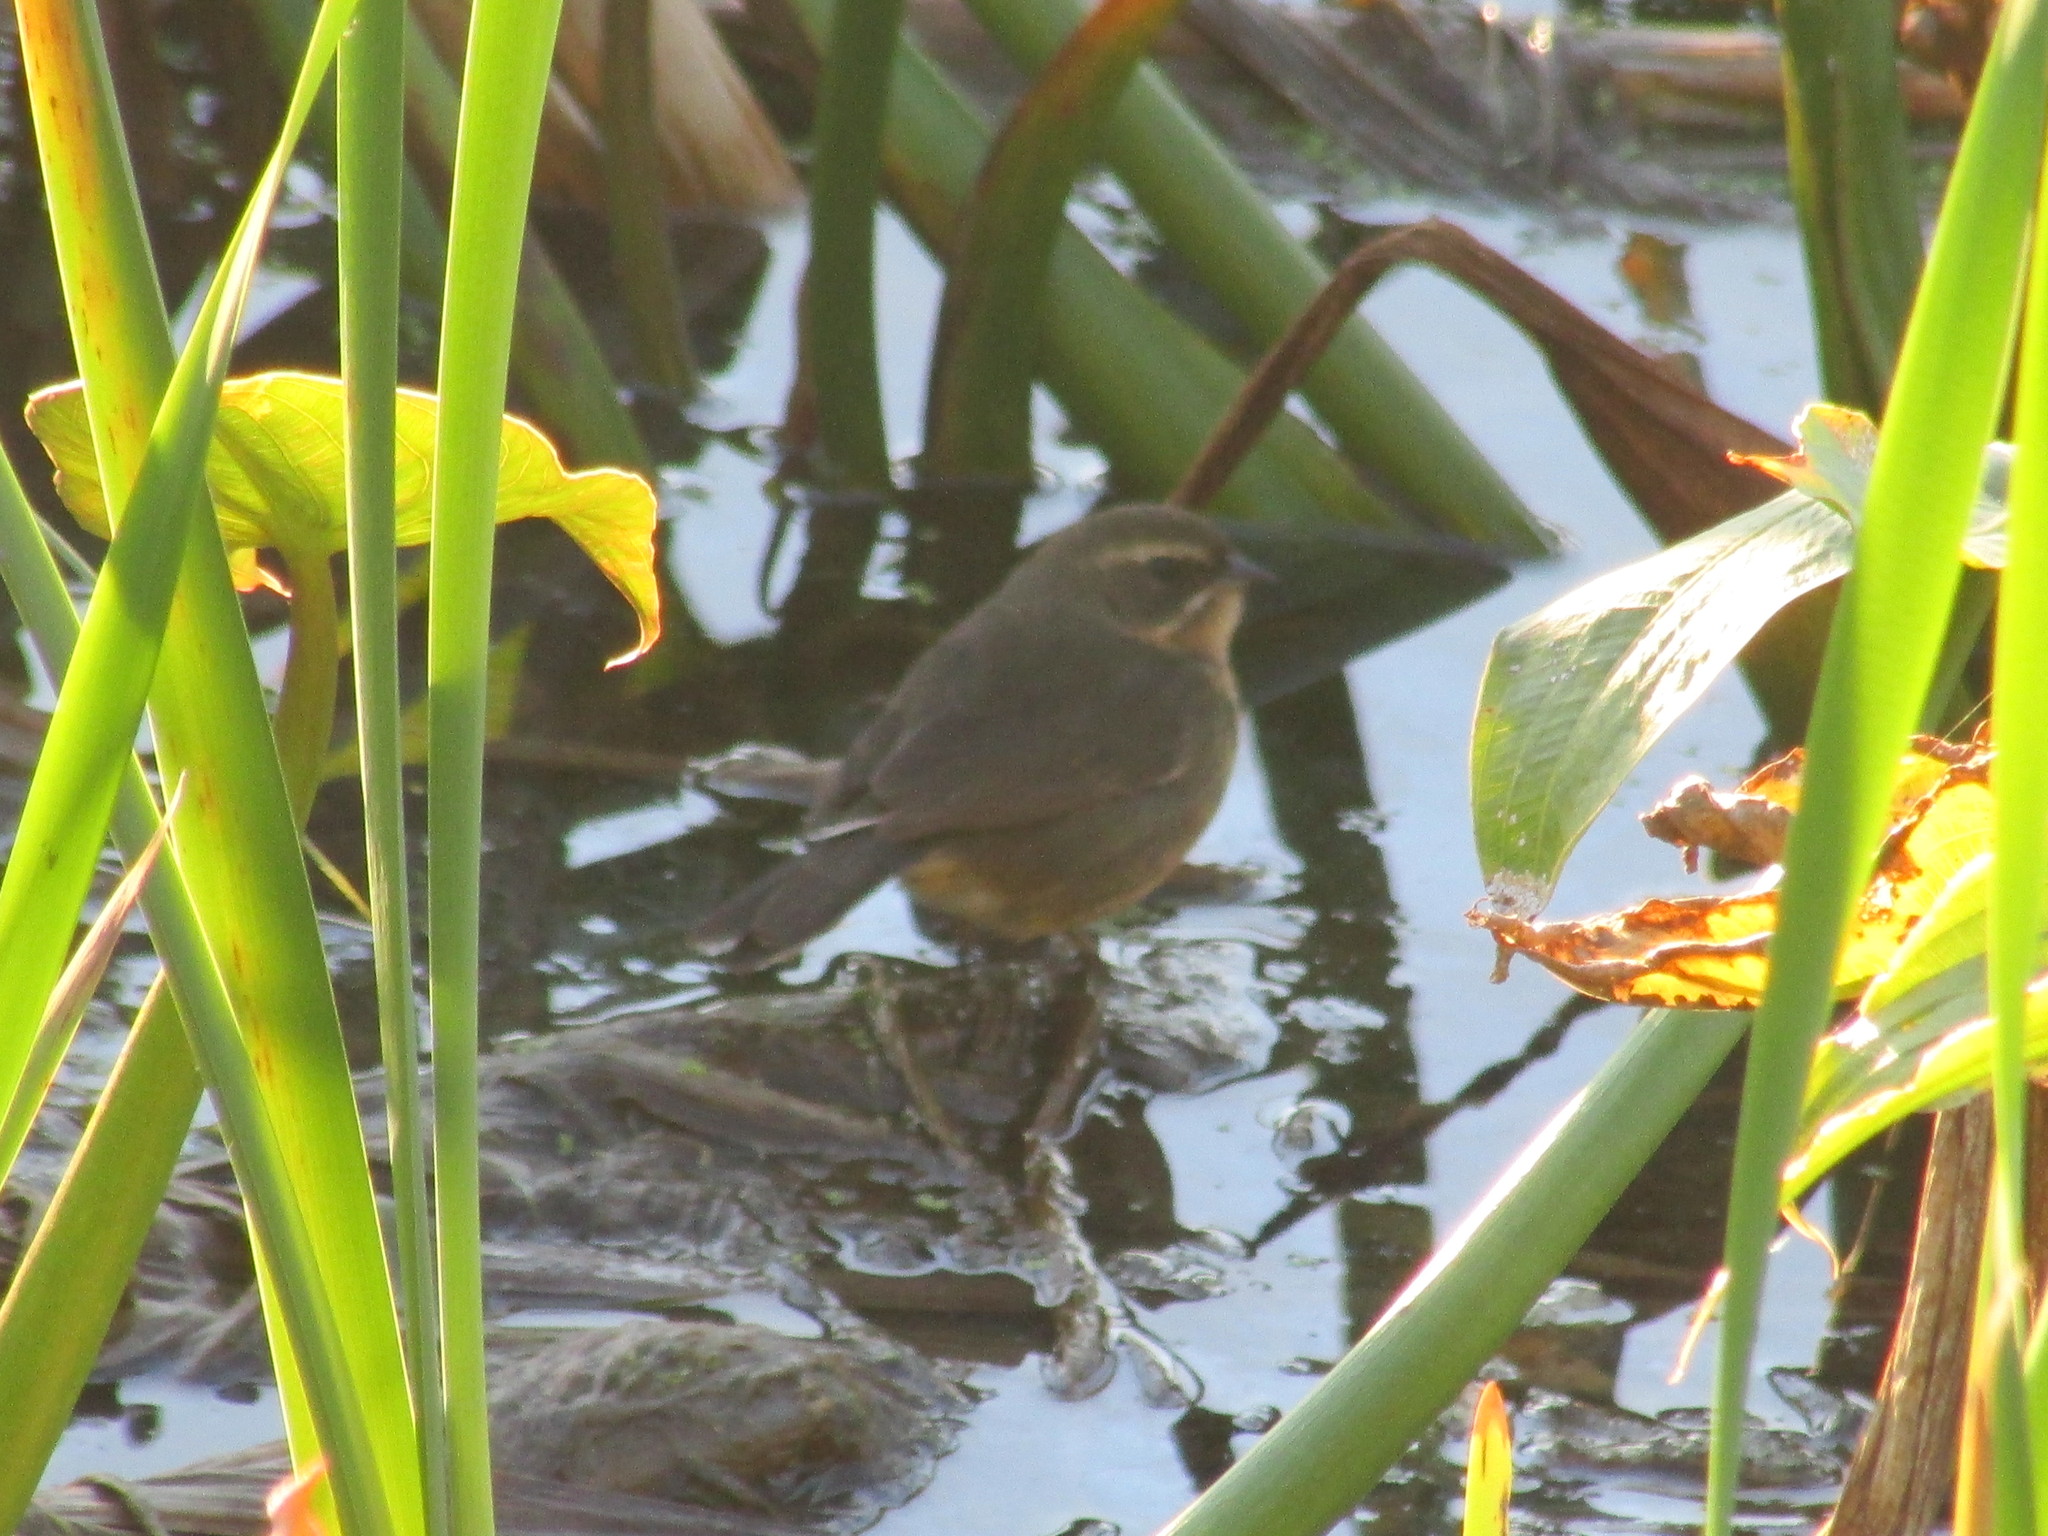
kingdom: Animalia
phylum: Chordata
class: Aves
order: Passeriformes
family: Thraupidae
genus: Poospiza
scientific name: Poospiza nigrorufa
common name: Black-and-rufous warbling finch
